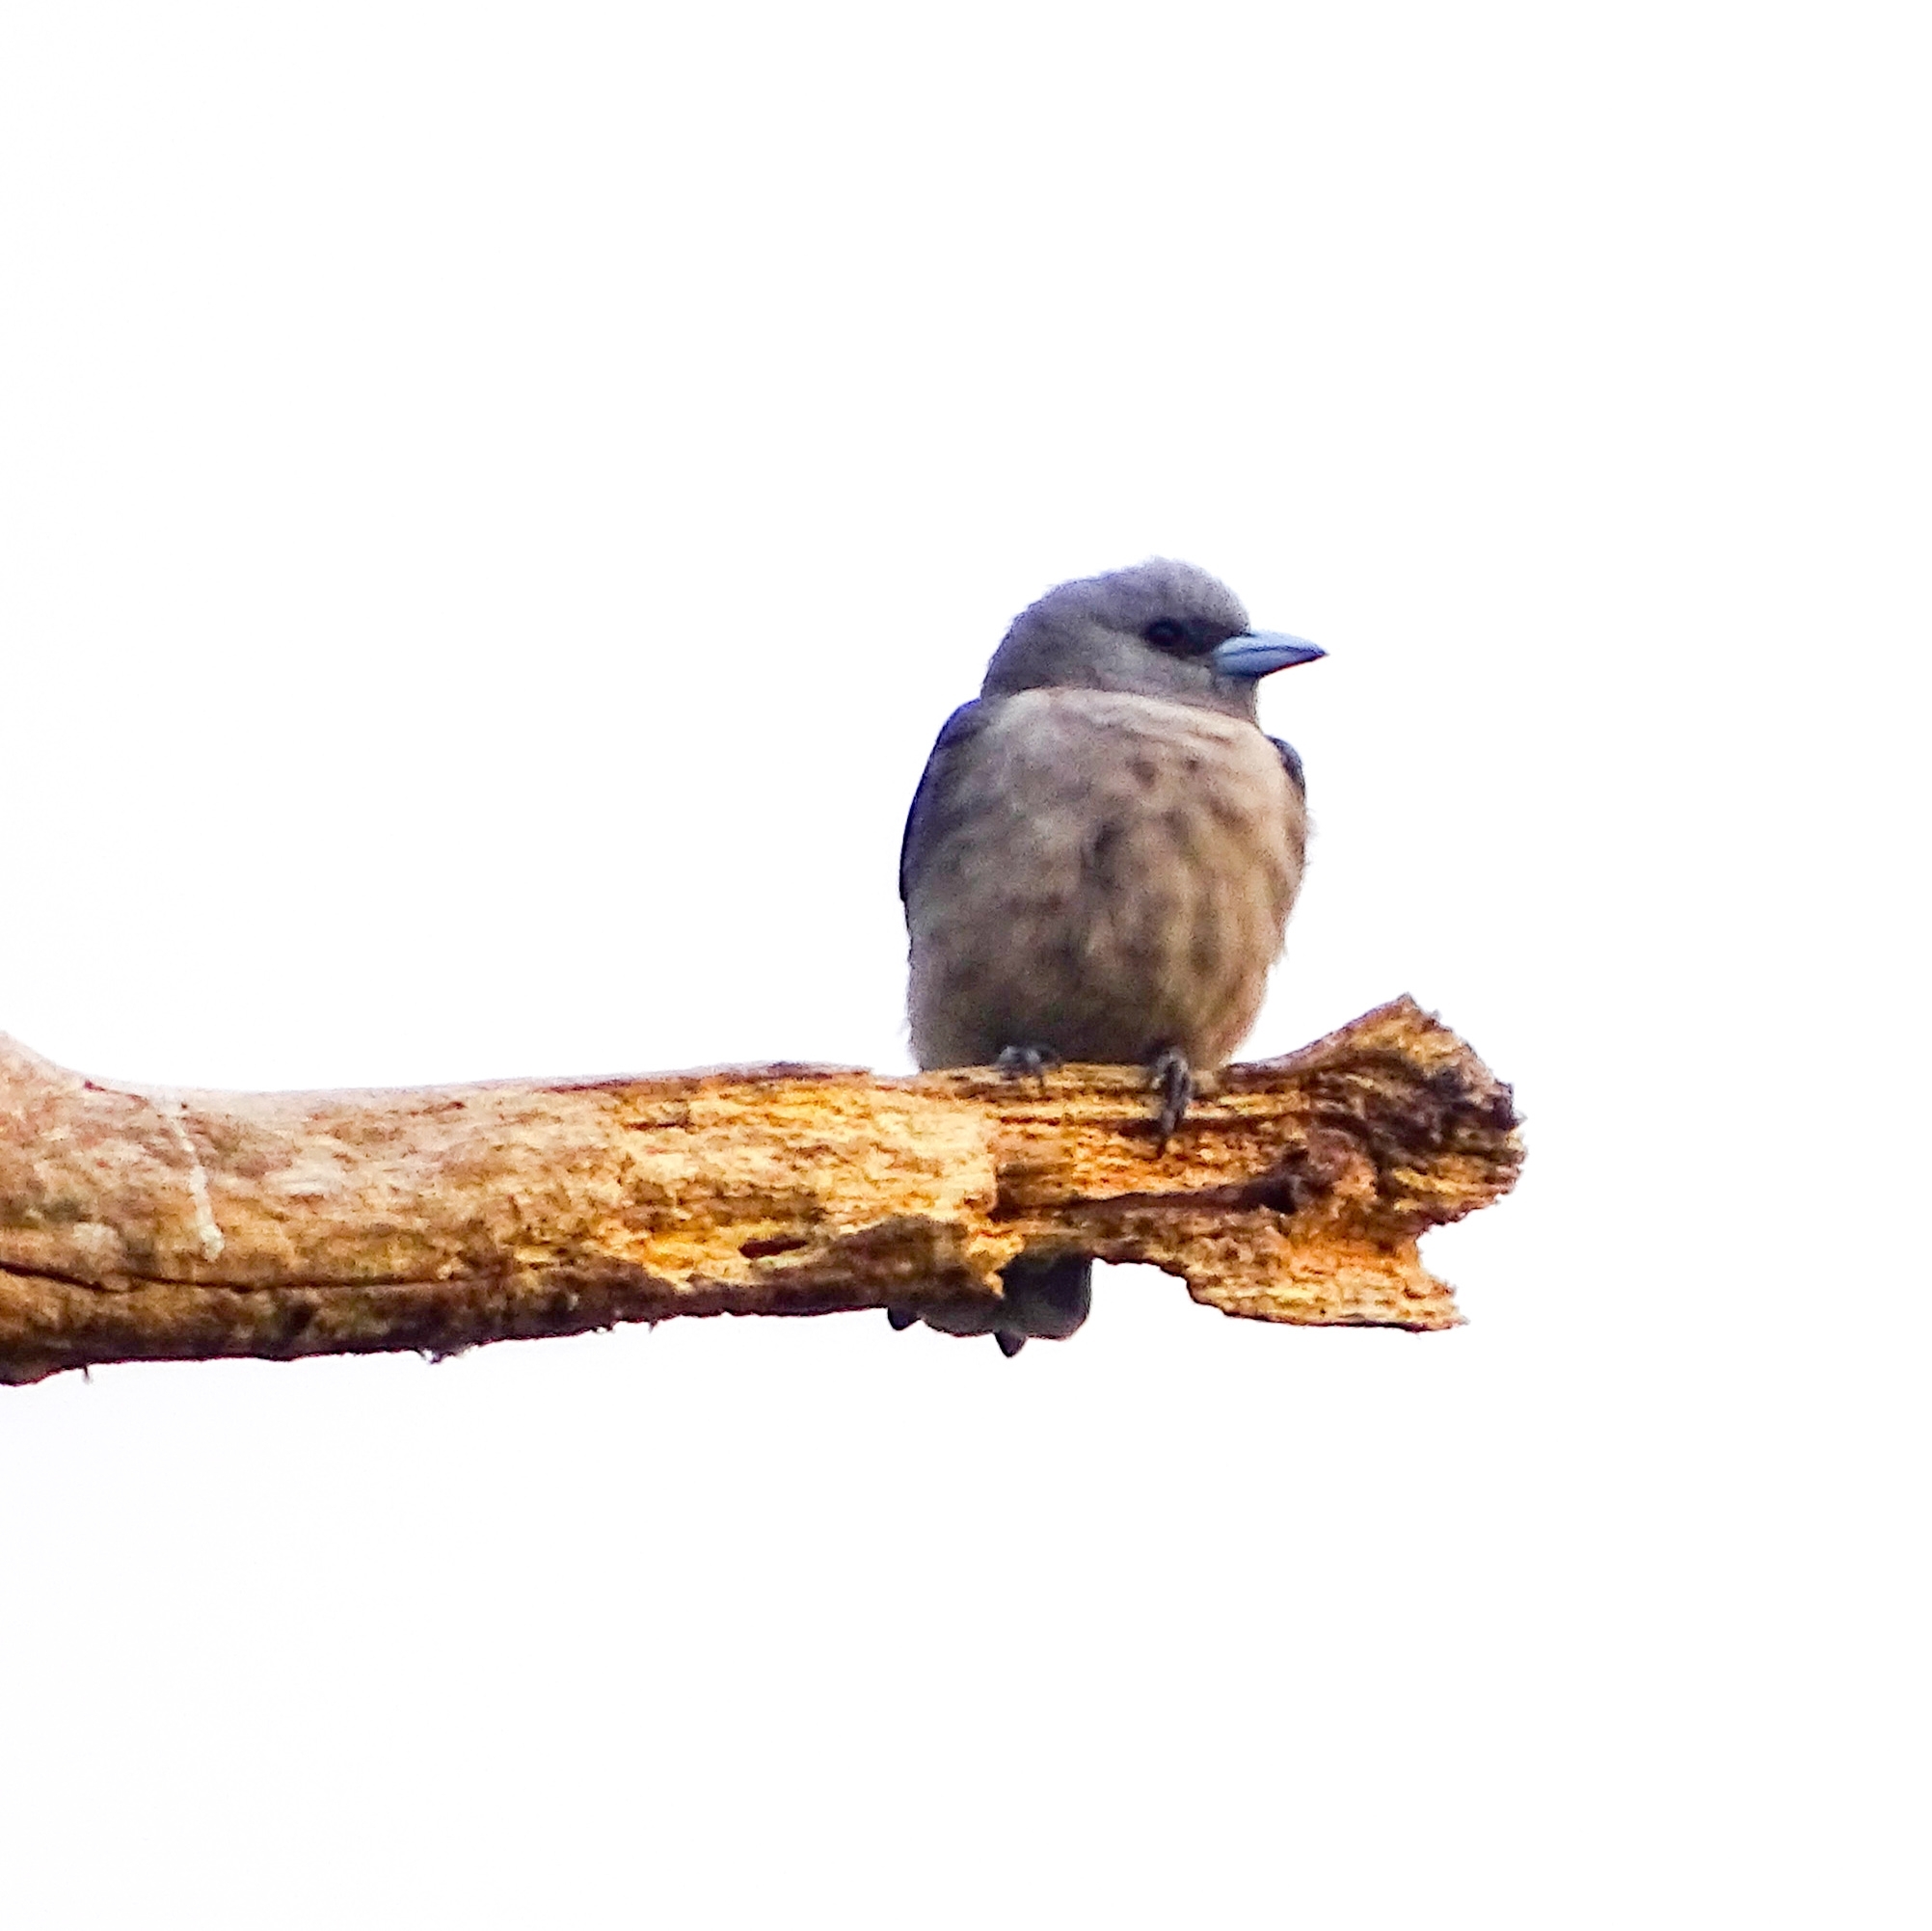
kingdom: Animalia
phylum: Chordata
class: Aves
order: Passeriformes
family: Artamidae
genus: Artamus
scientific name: Artamus fuscus
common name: Ashy woodswallow
